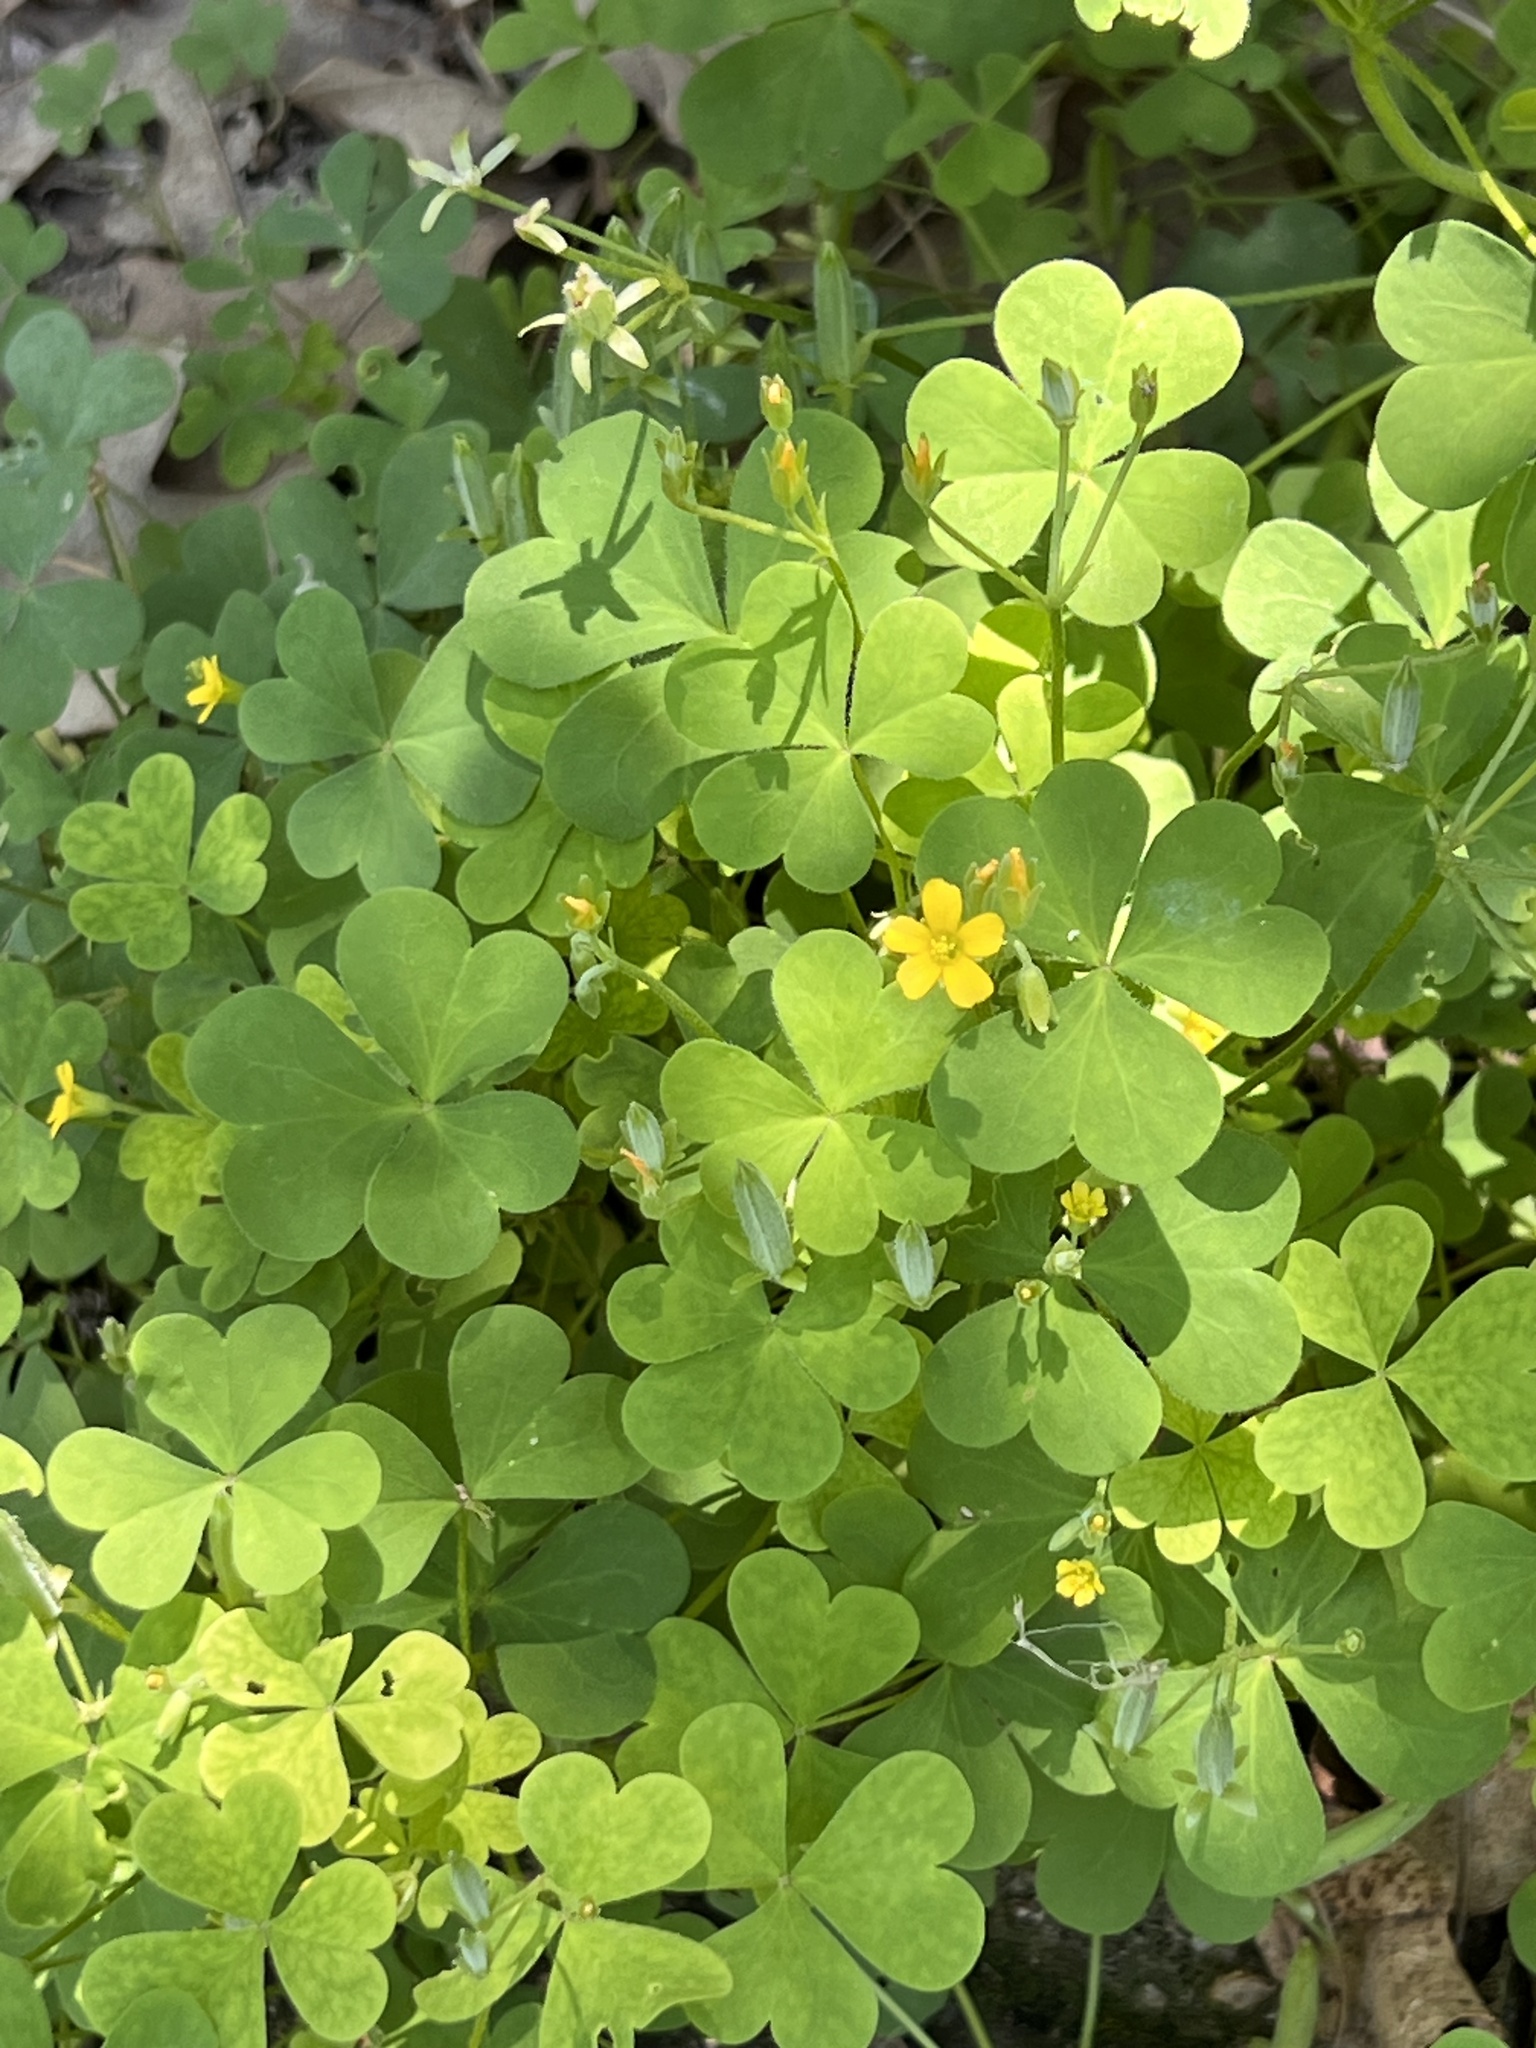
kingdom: Plantae
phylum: Tracheophyta
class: Magnoliopsida
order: Oxalidales
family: Oxalidaceae
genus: Oxalis
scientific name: Oxalis dillenii
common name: Sussex yellow-sorrel
